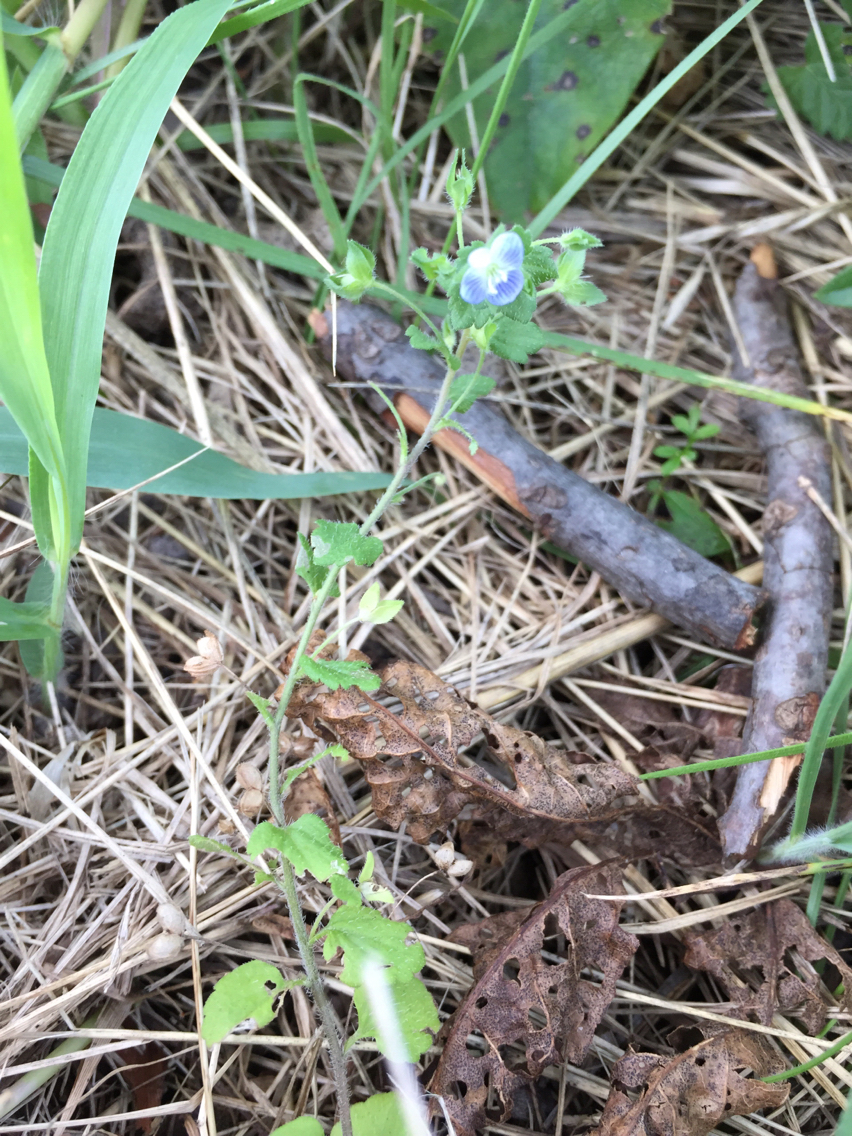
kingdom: Plantae
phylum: Tracheophyta
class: Magnoliopsida
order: Lamiales
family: Plantaginaceae
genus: Veronica
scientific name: Veronica persica
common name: Common field-speedwell
